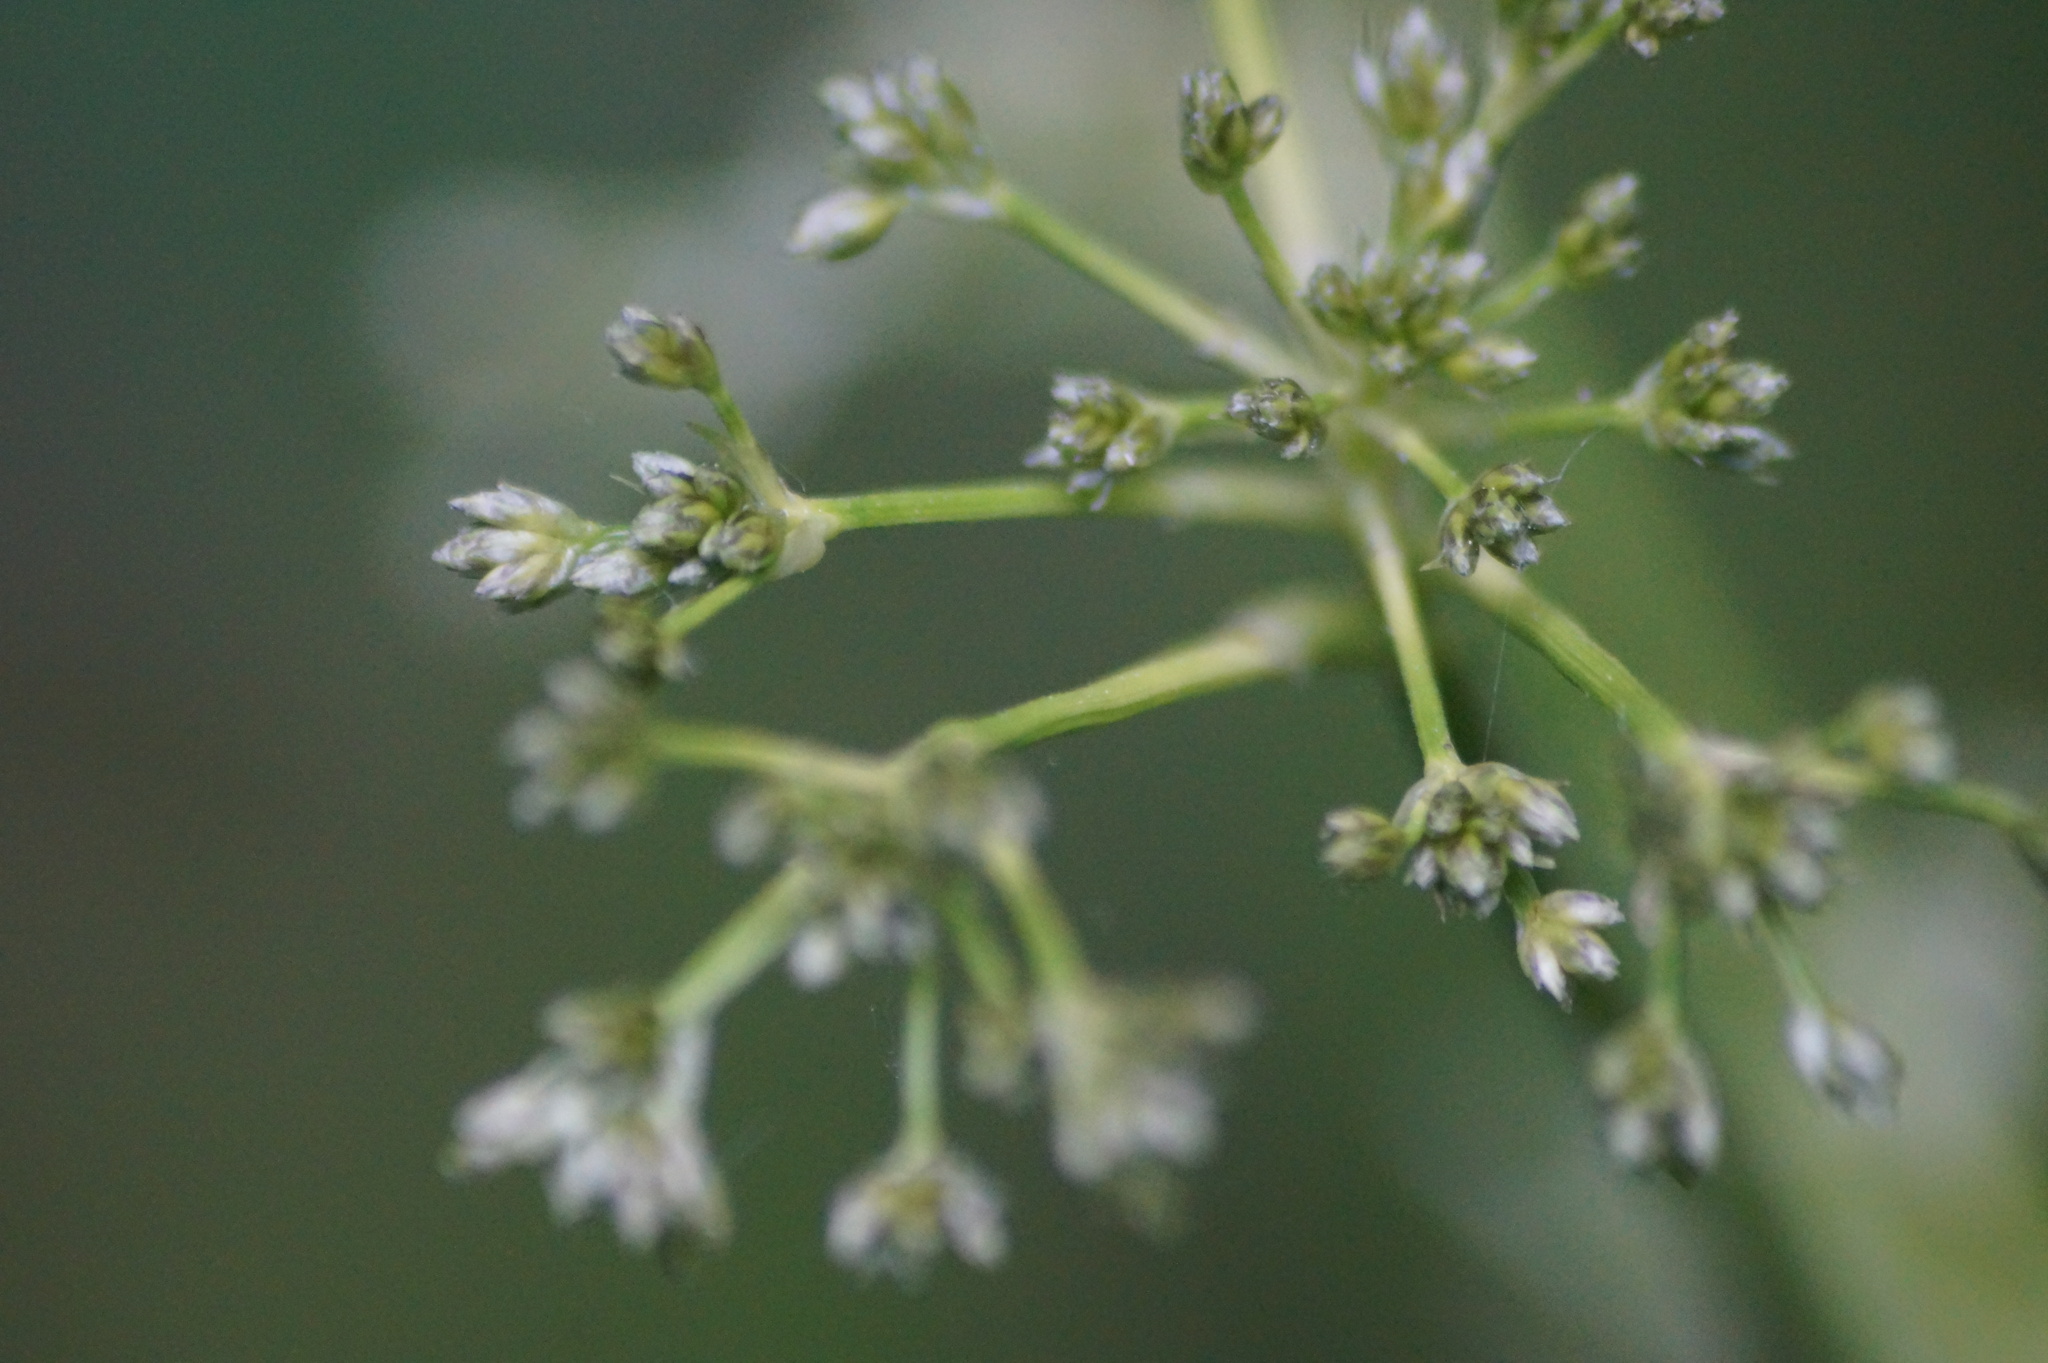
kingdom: Plantae
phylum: Tracheophyta
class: Liliopsida
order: Poales
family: Cyperaceae
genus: Scirpus
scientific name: Scirpus sylvaticus
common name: Wood club-rush
